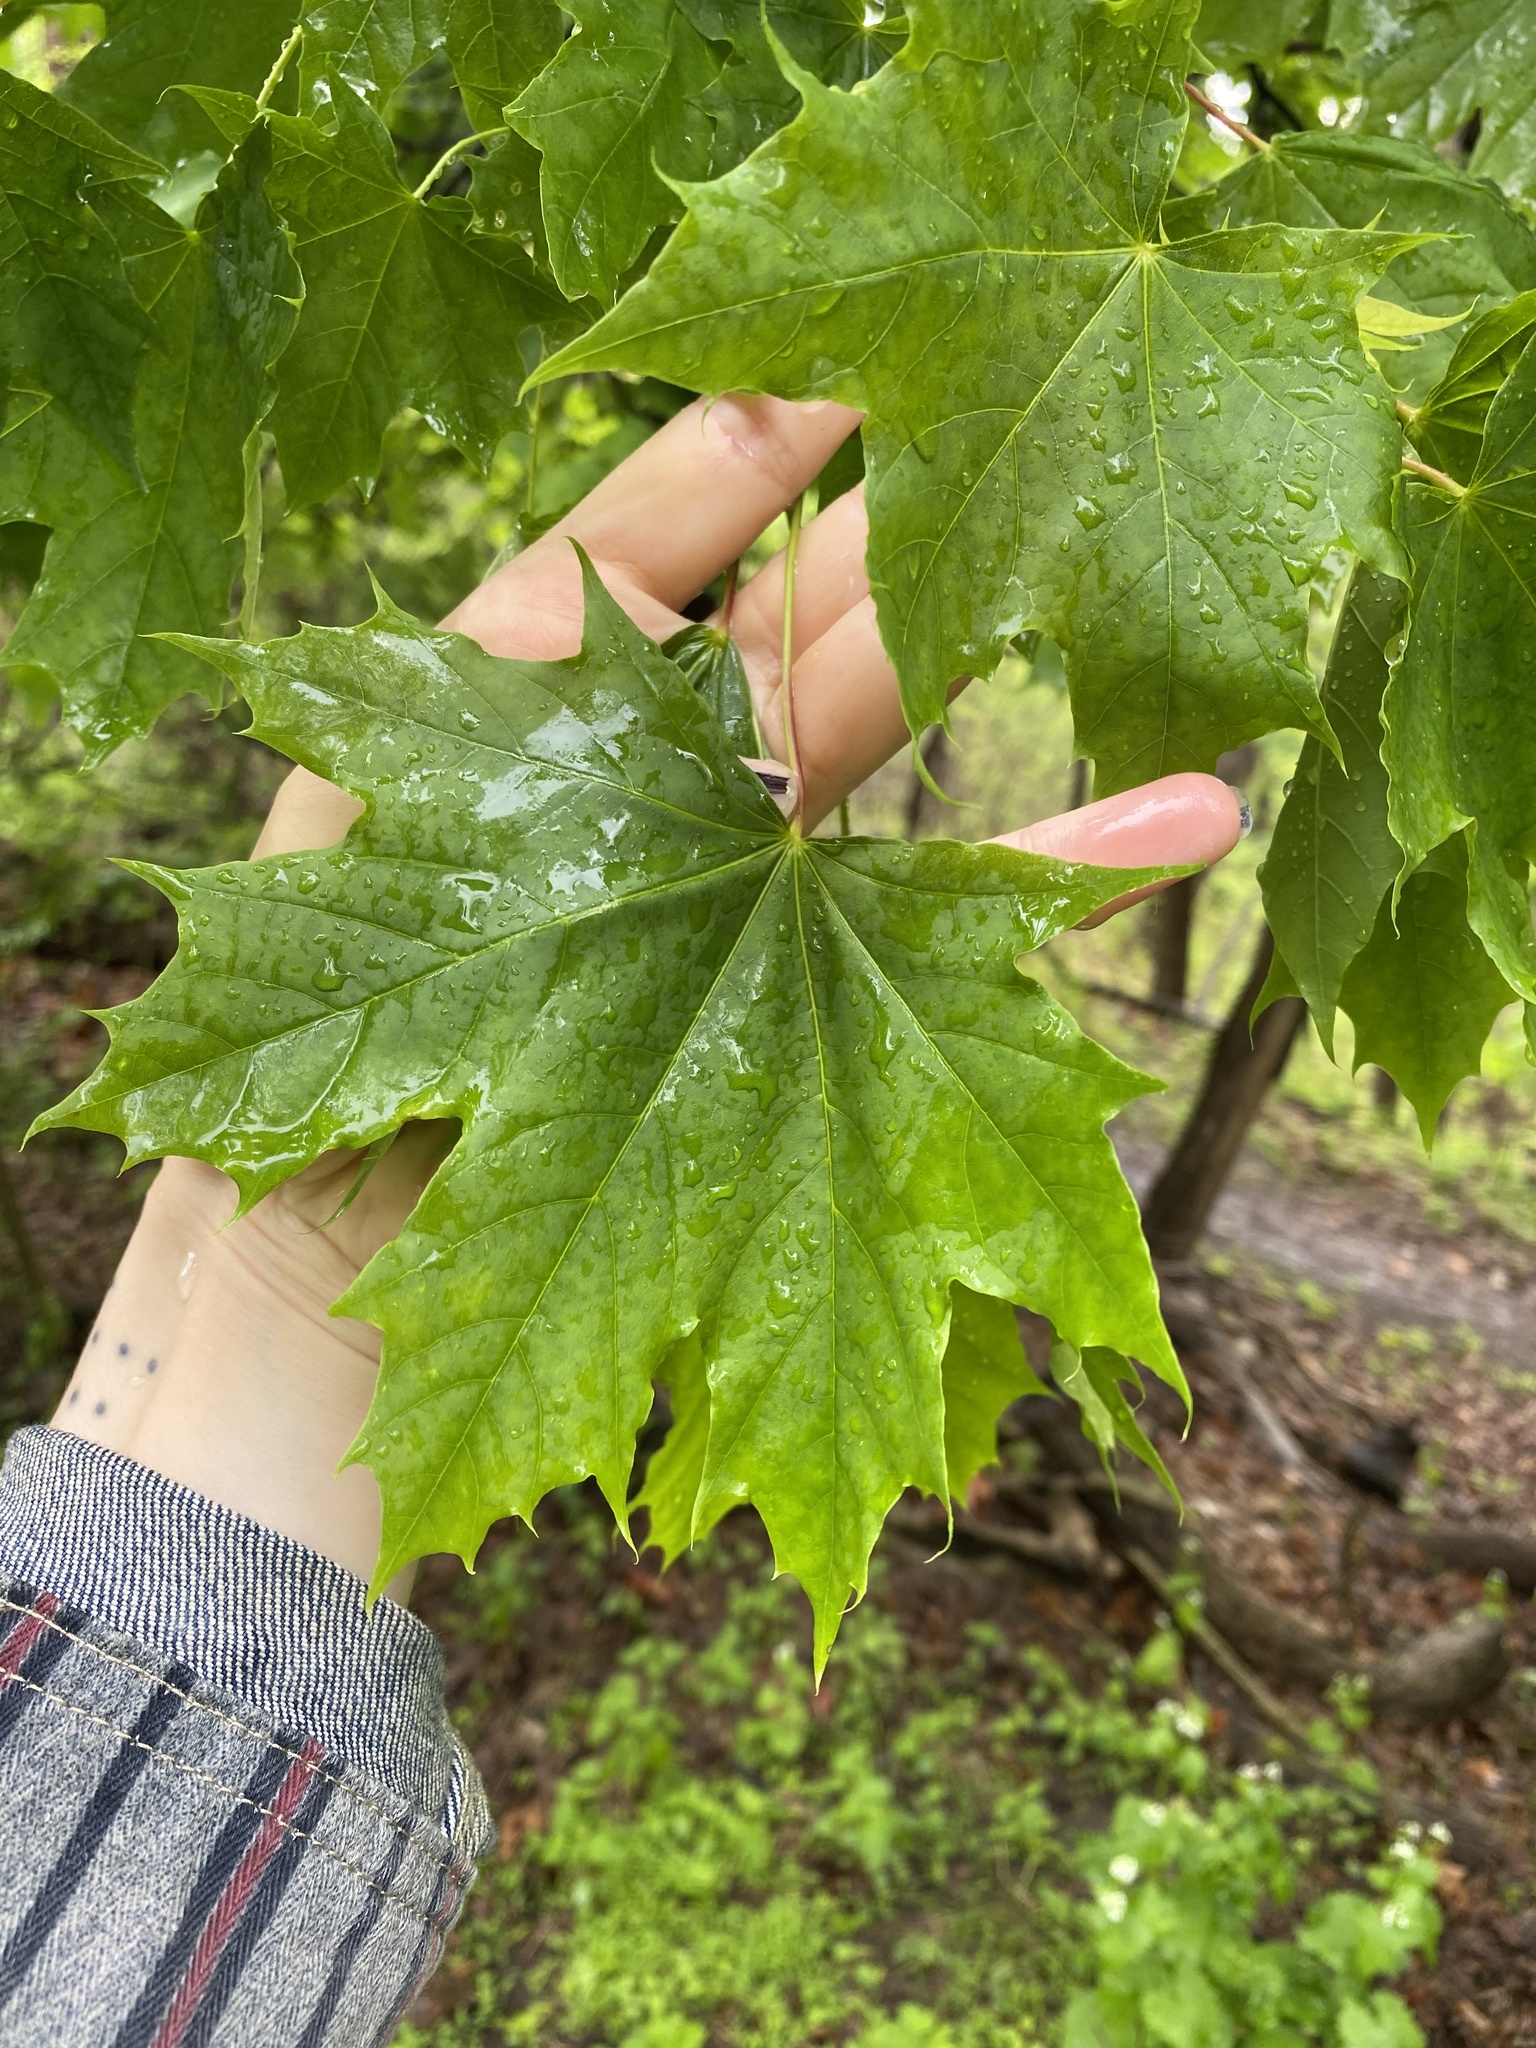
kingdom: Plantae
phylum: Tracheophyta
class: Magnoliopsida
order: Sapindales
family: Sapindaceae
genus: Acer
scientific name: Acer platanoides
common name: Norway maple
